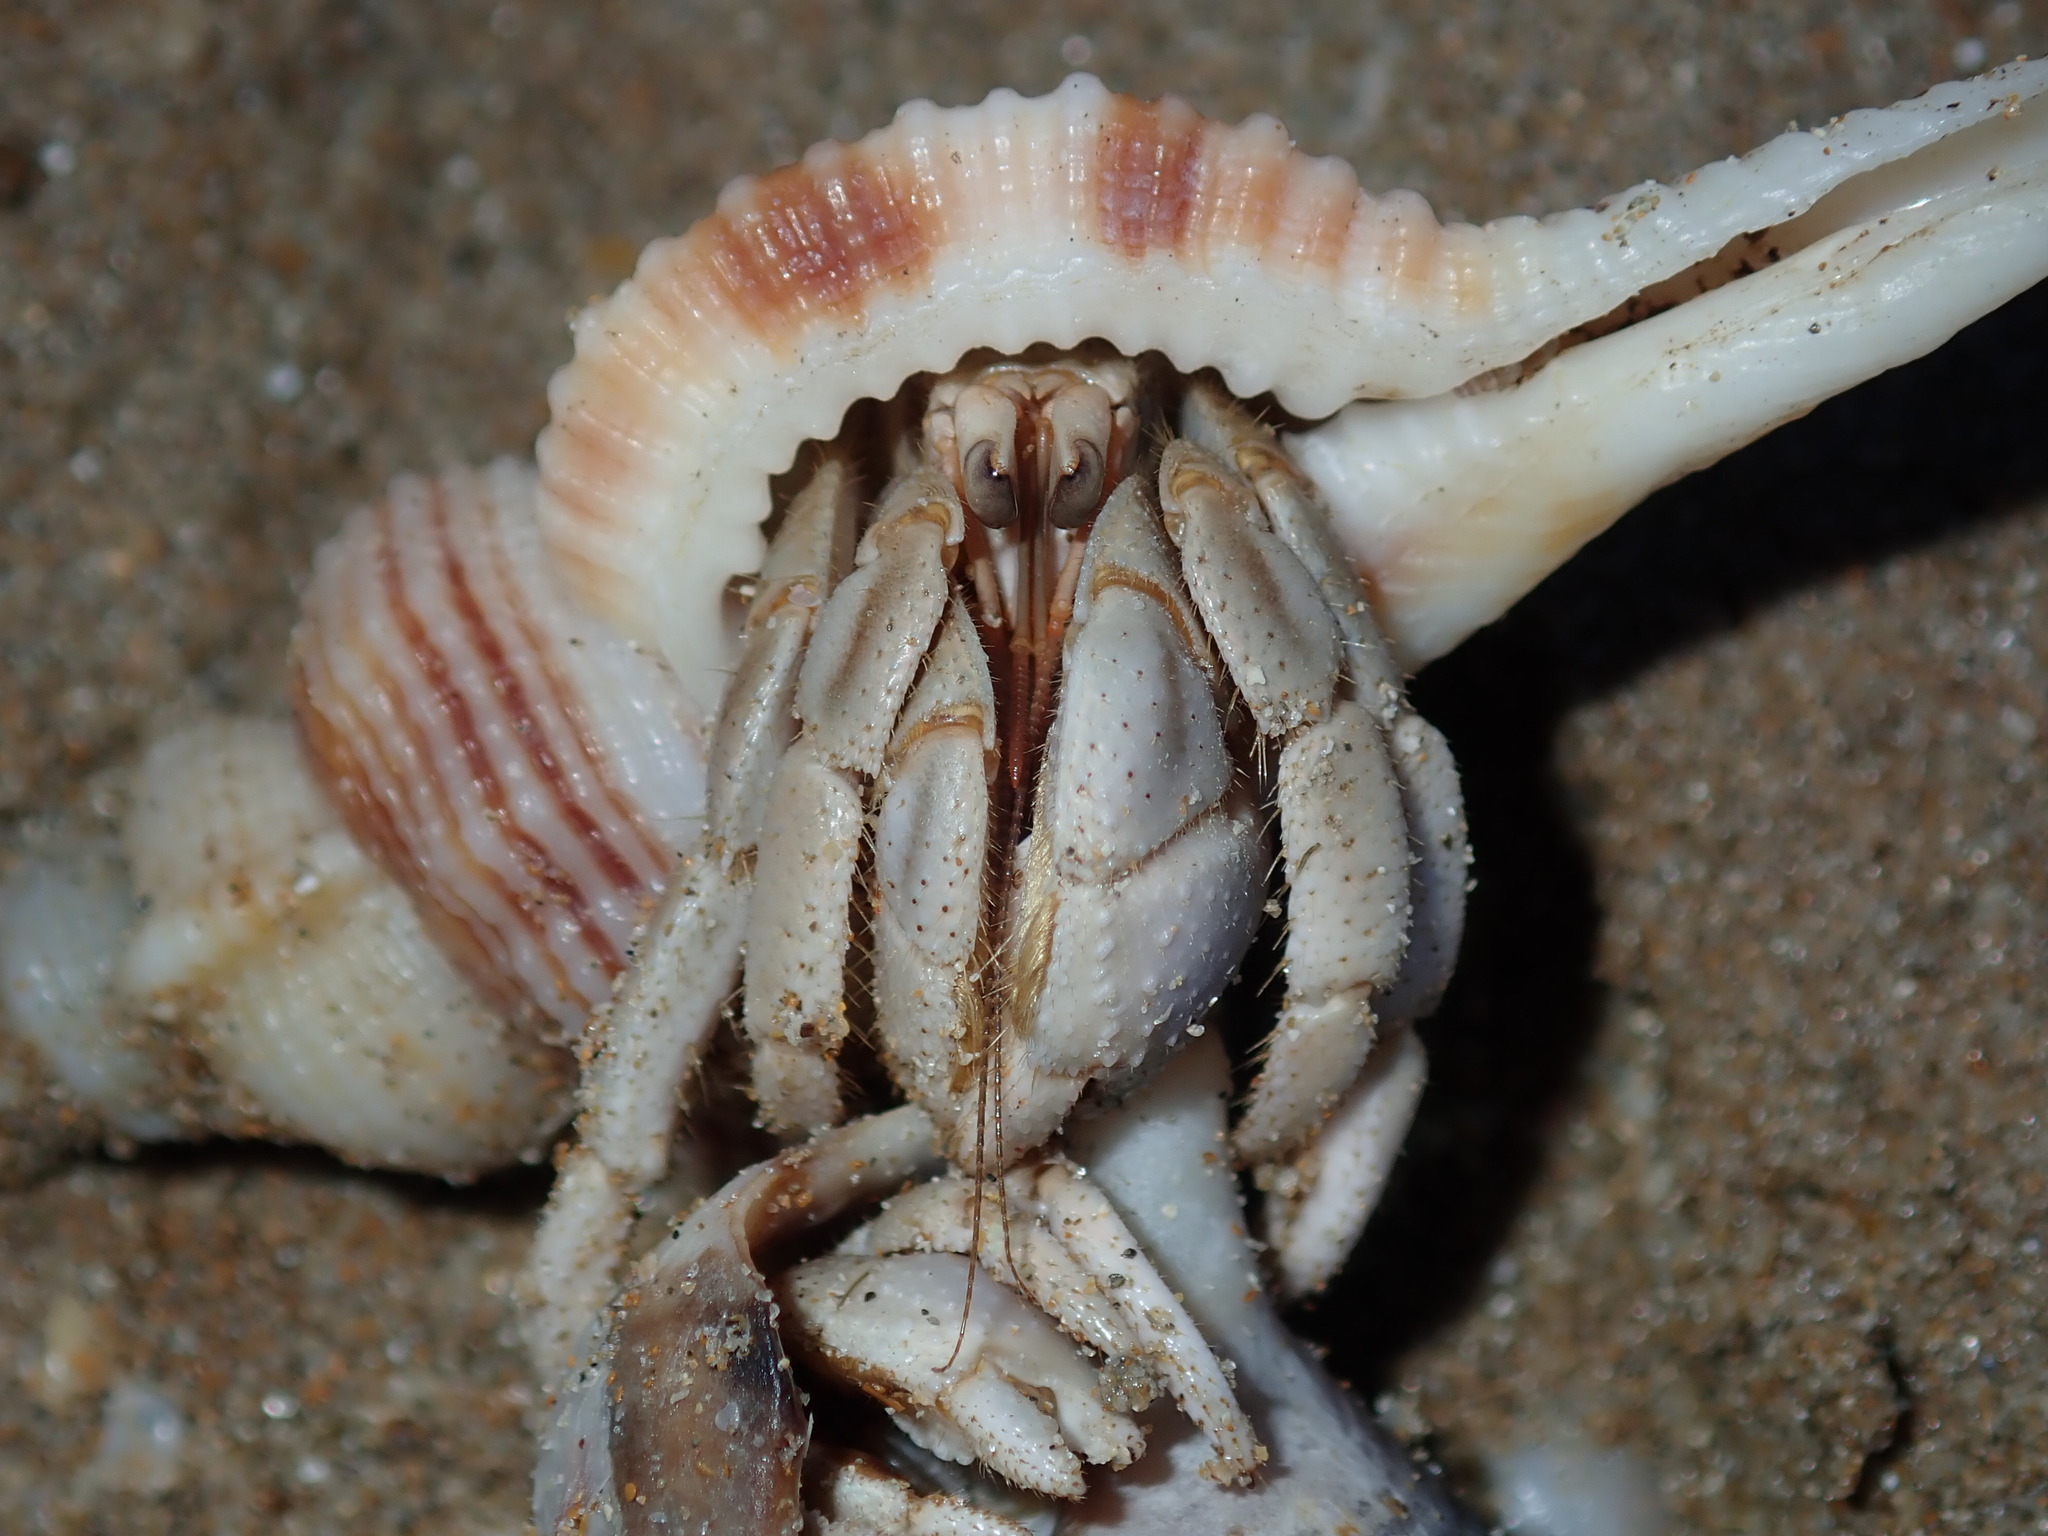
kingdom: Animalia
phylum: Arthropoda
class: Malacostraca
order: Decapoda
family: Coenobitidae
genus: Coenobita
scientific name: Coenobita variabilis
